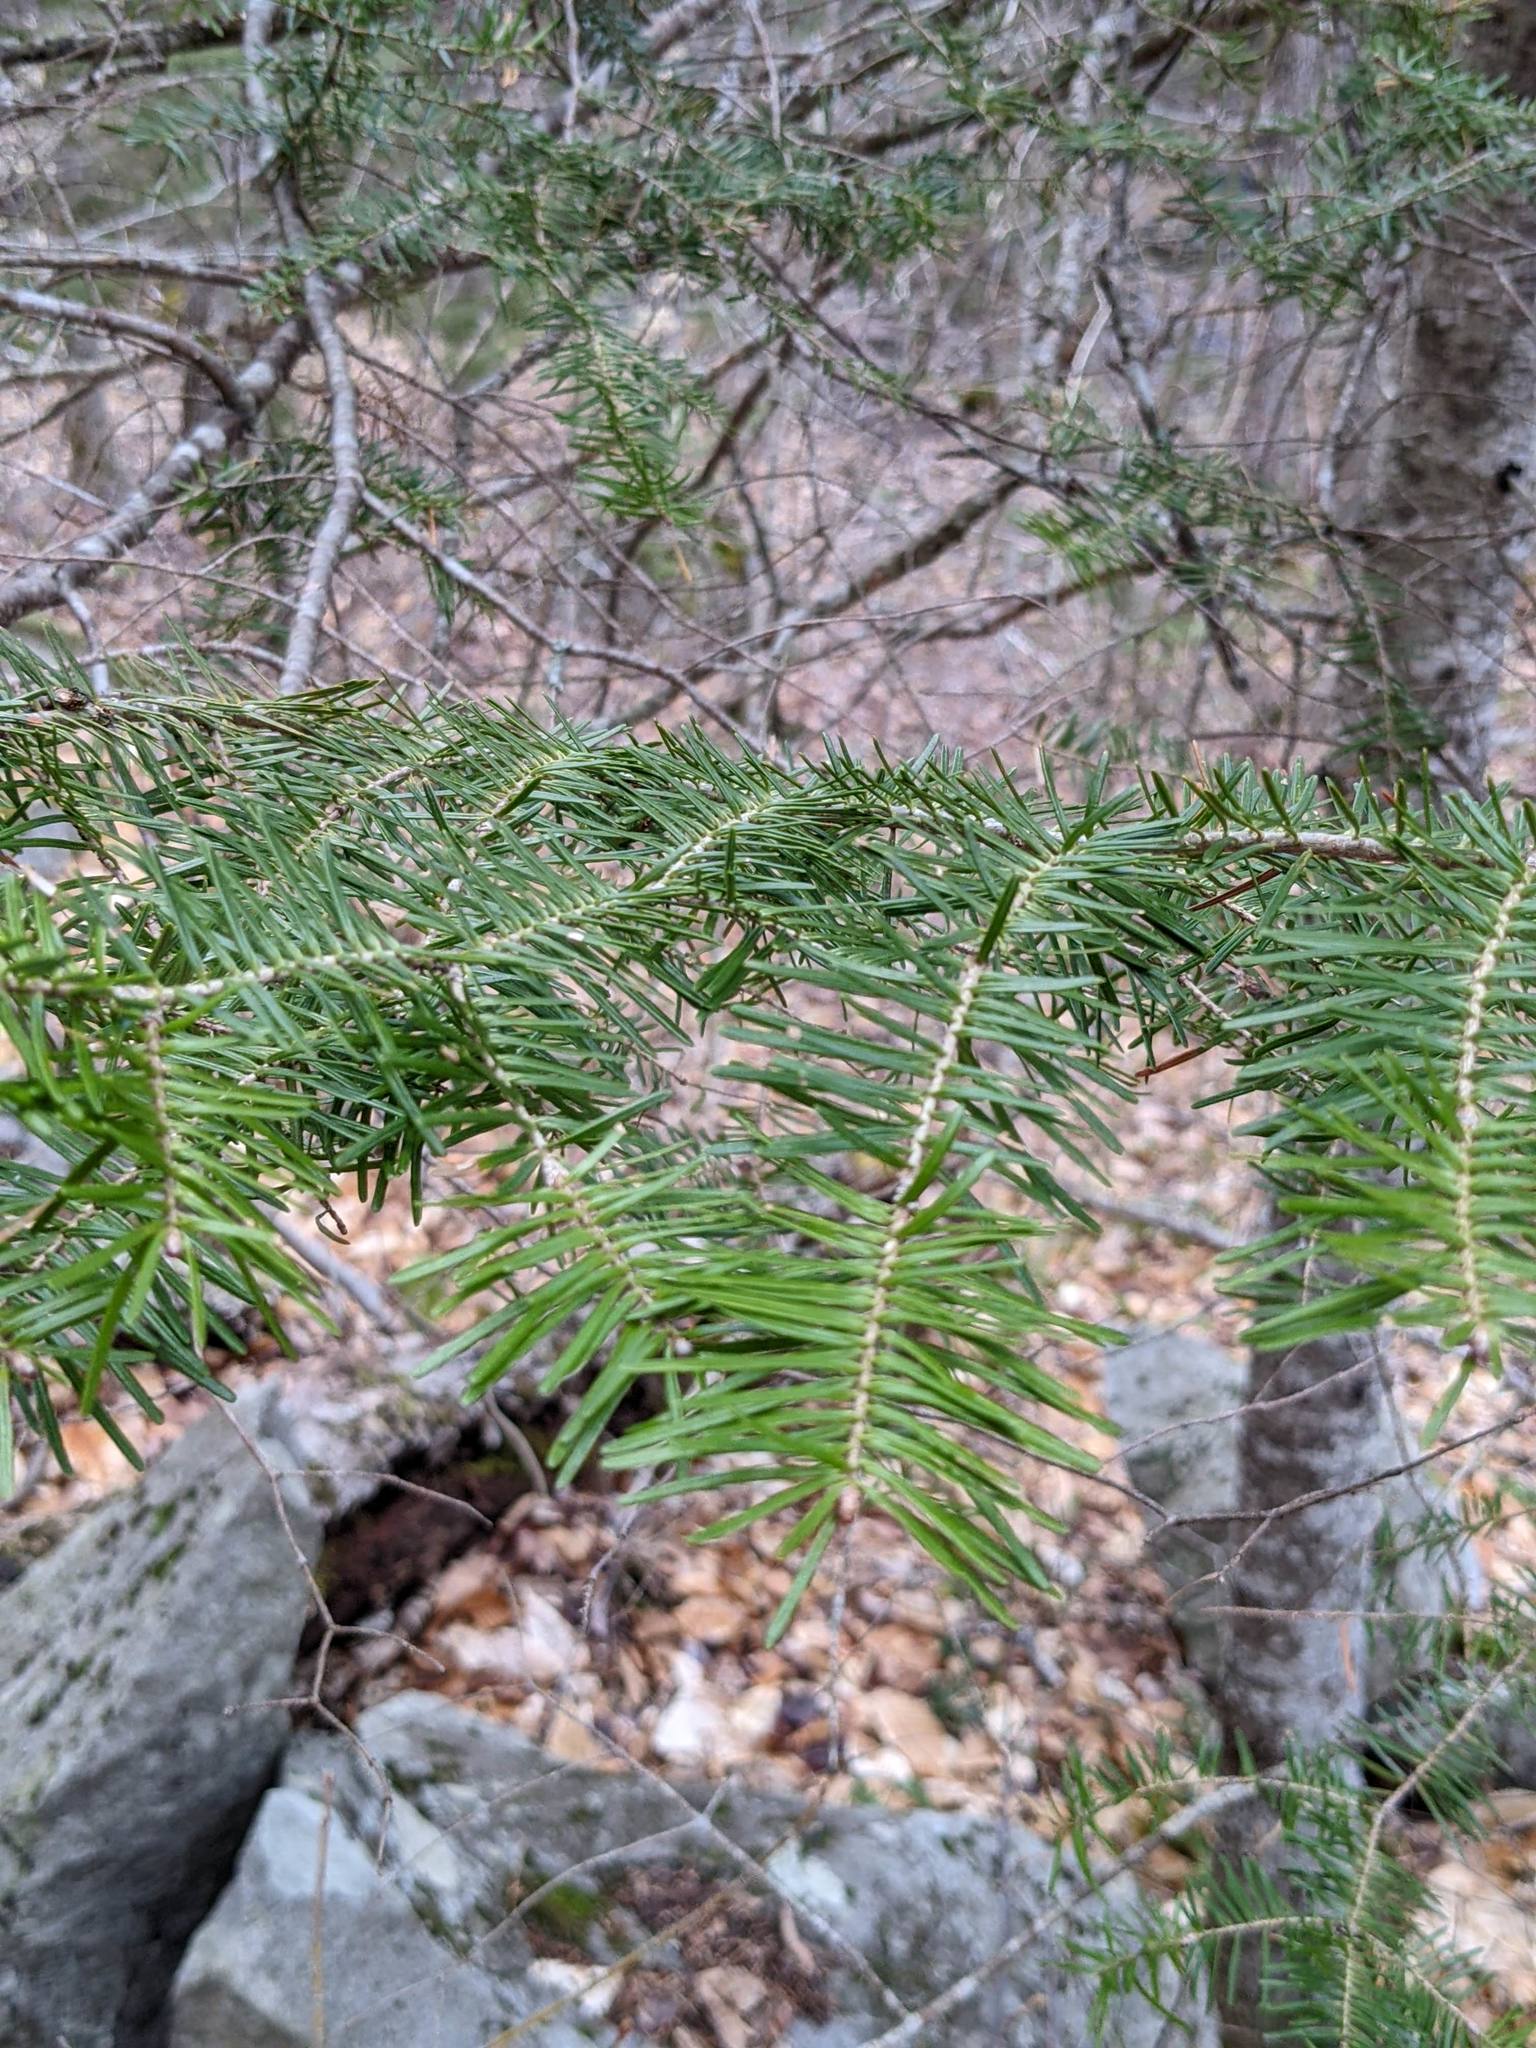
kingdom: Plantae
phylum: Tracheophyta
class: Pinopsida
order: Pinales
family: Pinaceae
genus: Abies
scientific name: Abies balsamea
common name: Balsam fir
